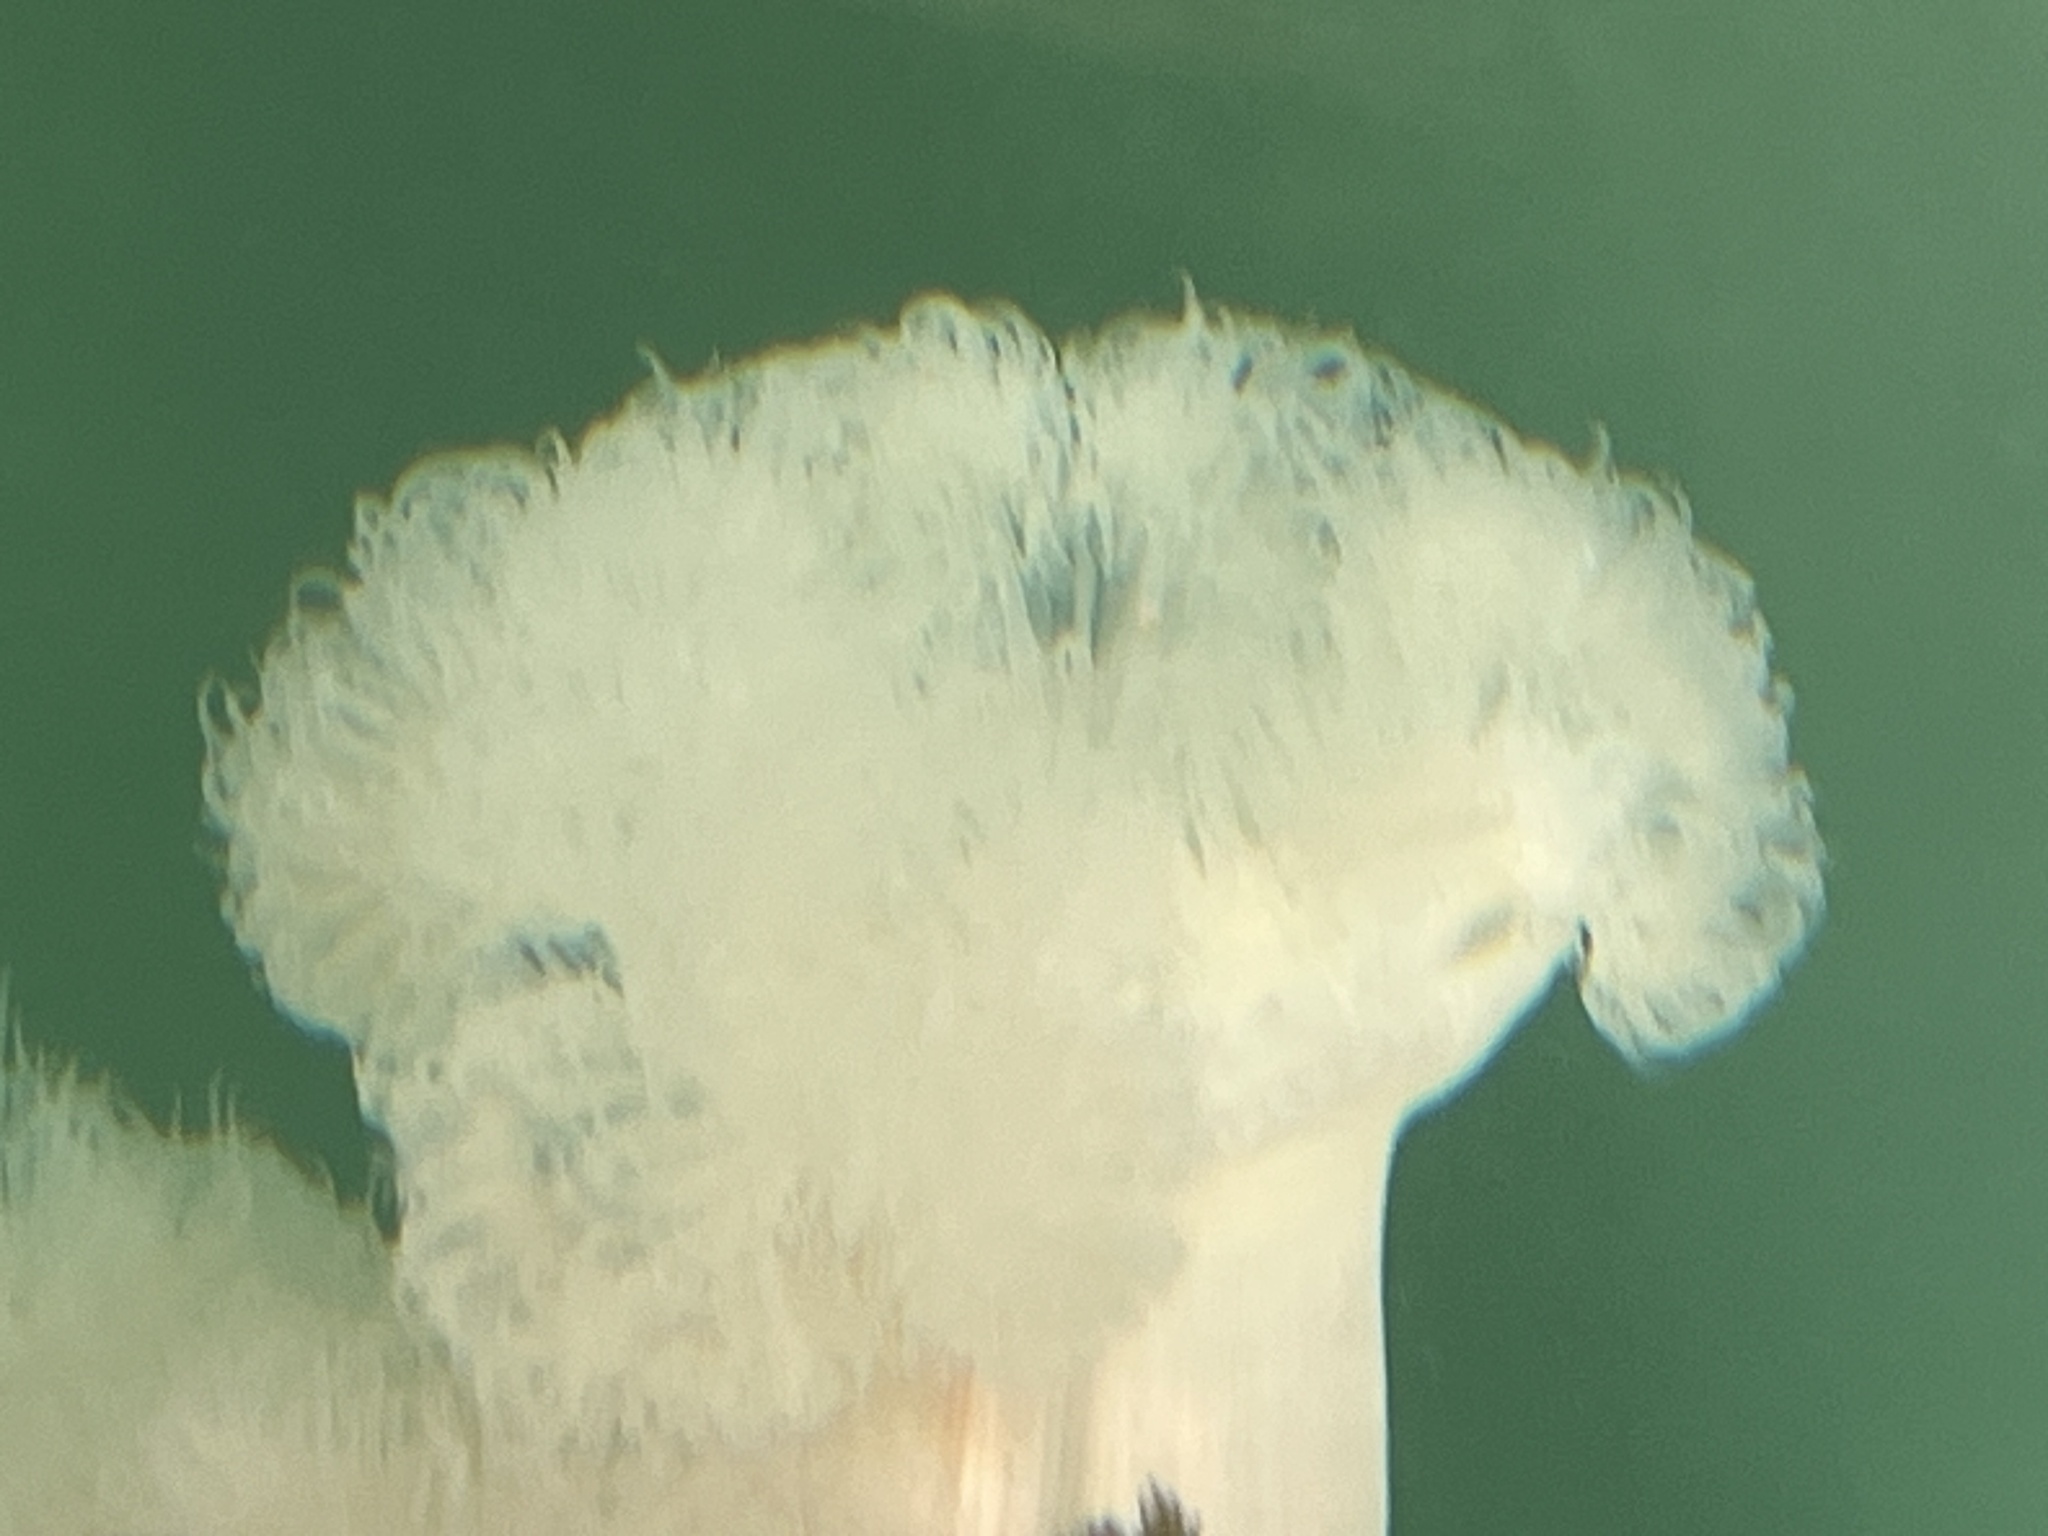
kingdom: Animalia
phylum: Cnidaria
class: Anthozoa
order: Actiniaria
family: Metridiidae
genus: Metridium
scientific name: Metridium farcimen
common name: Gigantic anemone
